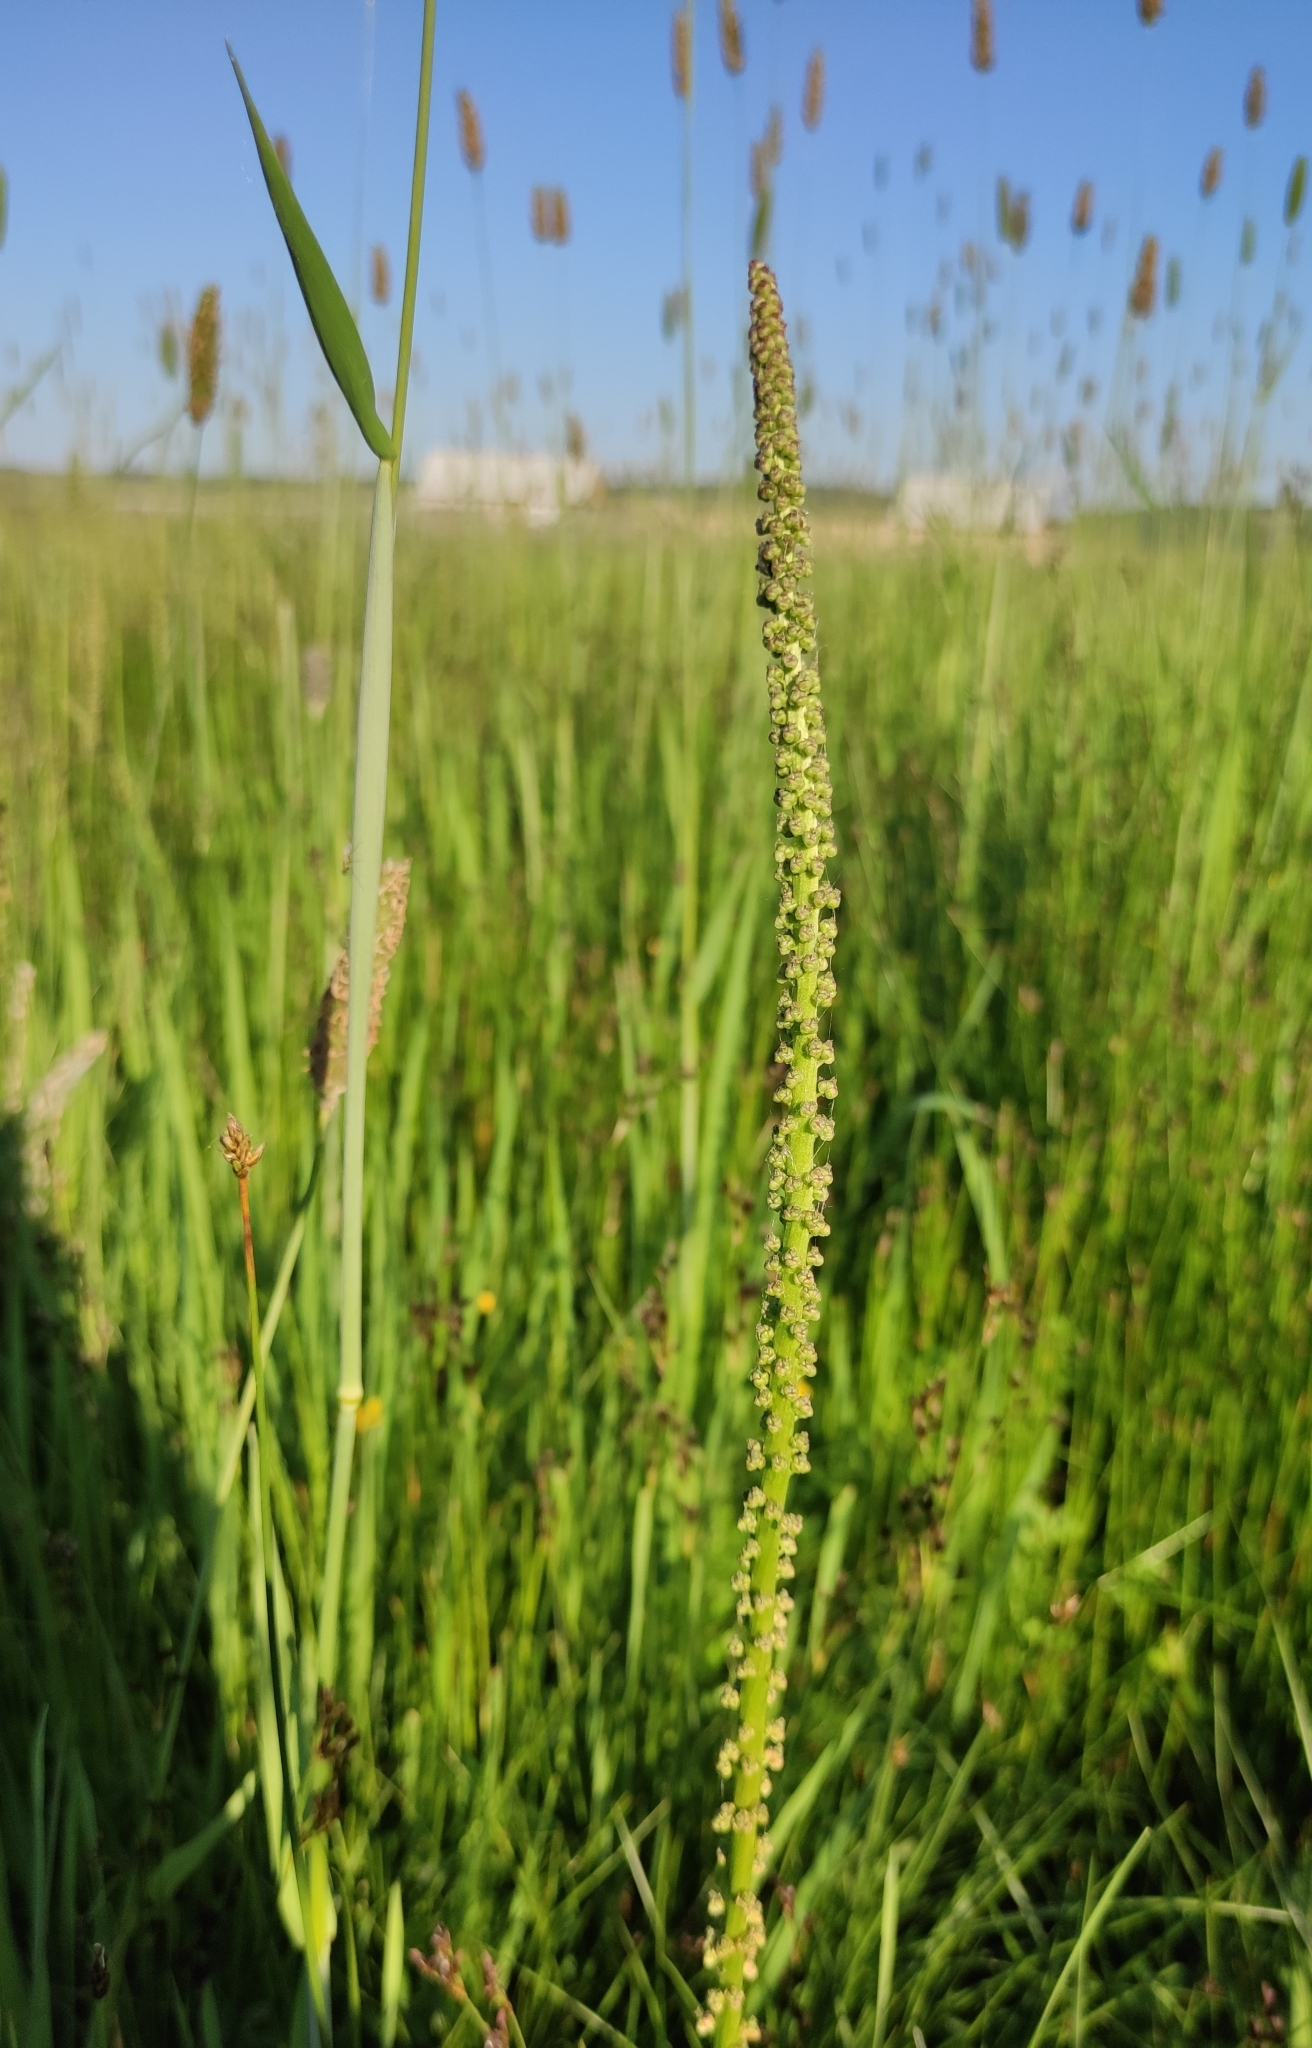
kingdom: Plantae
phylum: Tracheophyta
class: Liliopsida
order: Alismatales
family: Juncaginaceae
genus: Triglochin
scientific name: Triglochin maritima
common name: Sea arrowgrass
